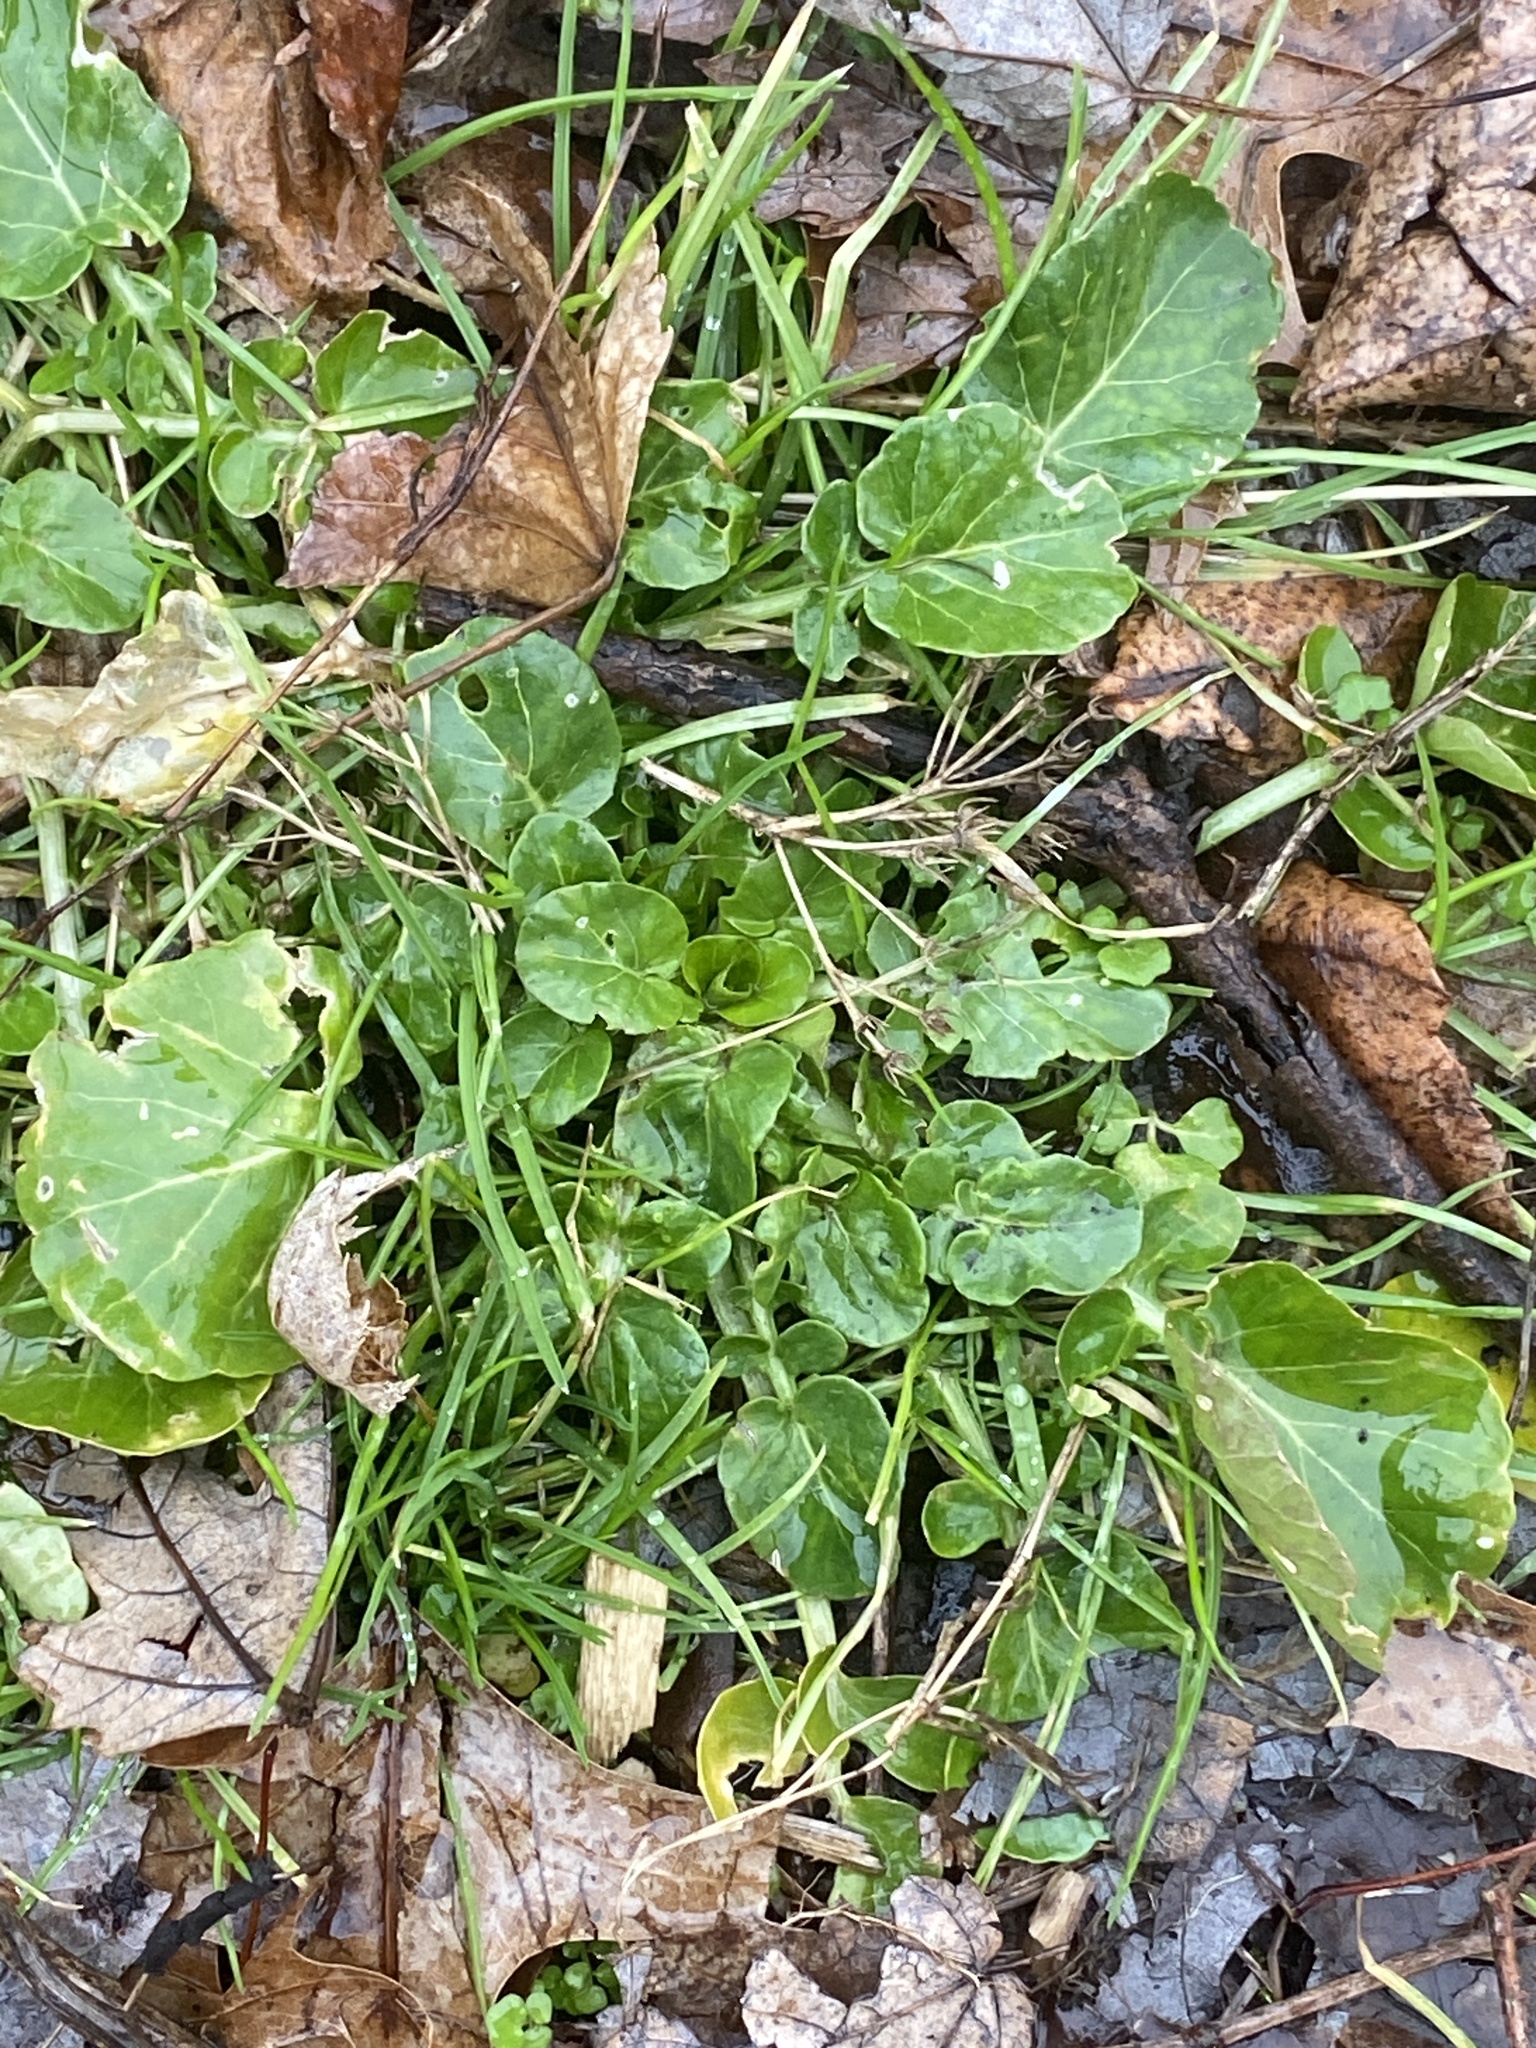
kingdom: Plantae
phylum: Tracheophyta
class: Magnoliopsida
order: Brassicales
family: Brassicaceae
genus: Barbarea
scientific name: Barbarea vulgaris
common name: Cressy-greens
